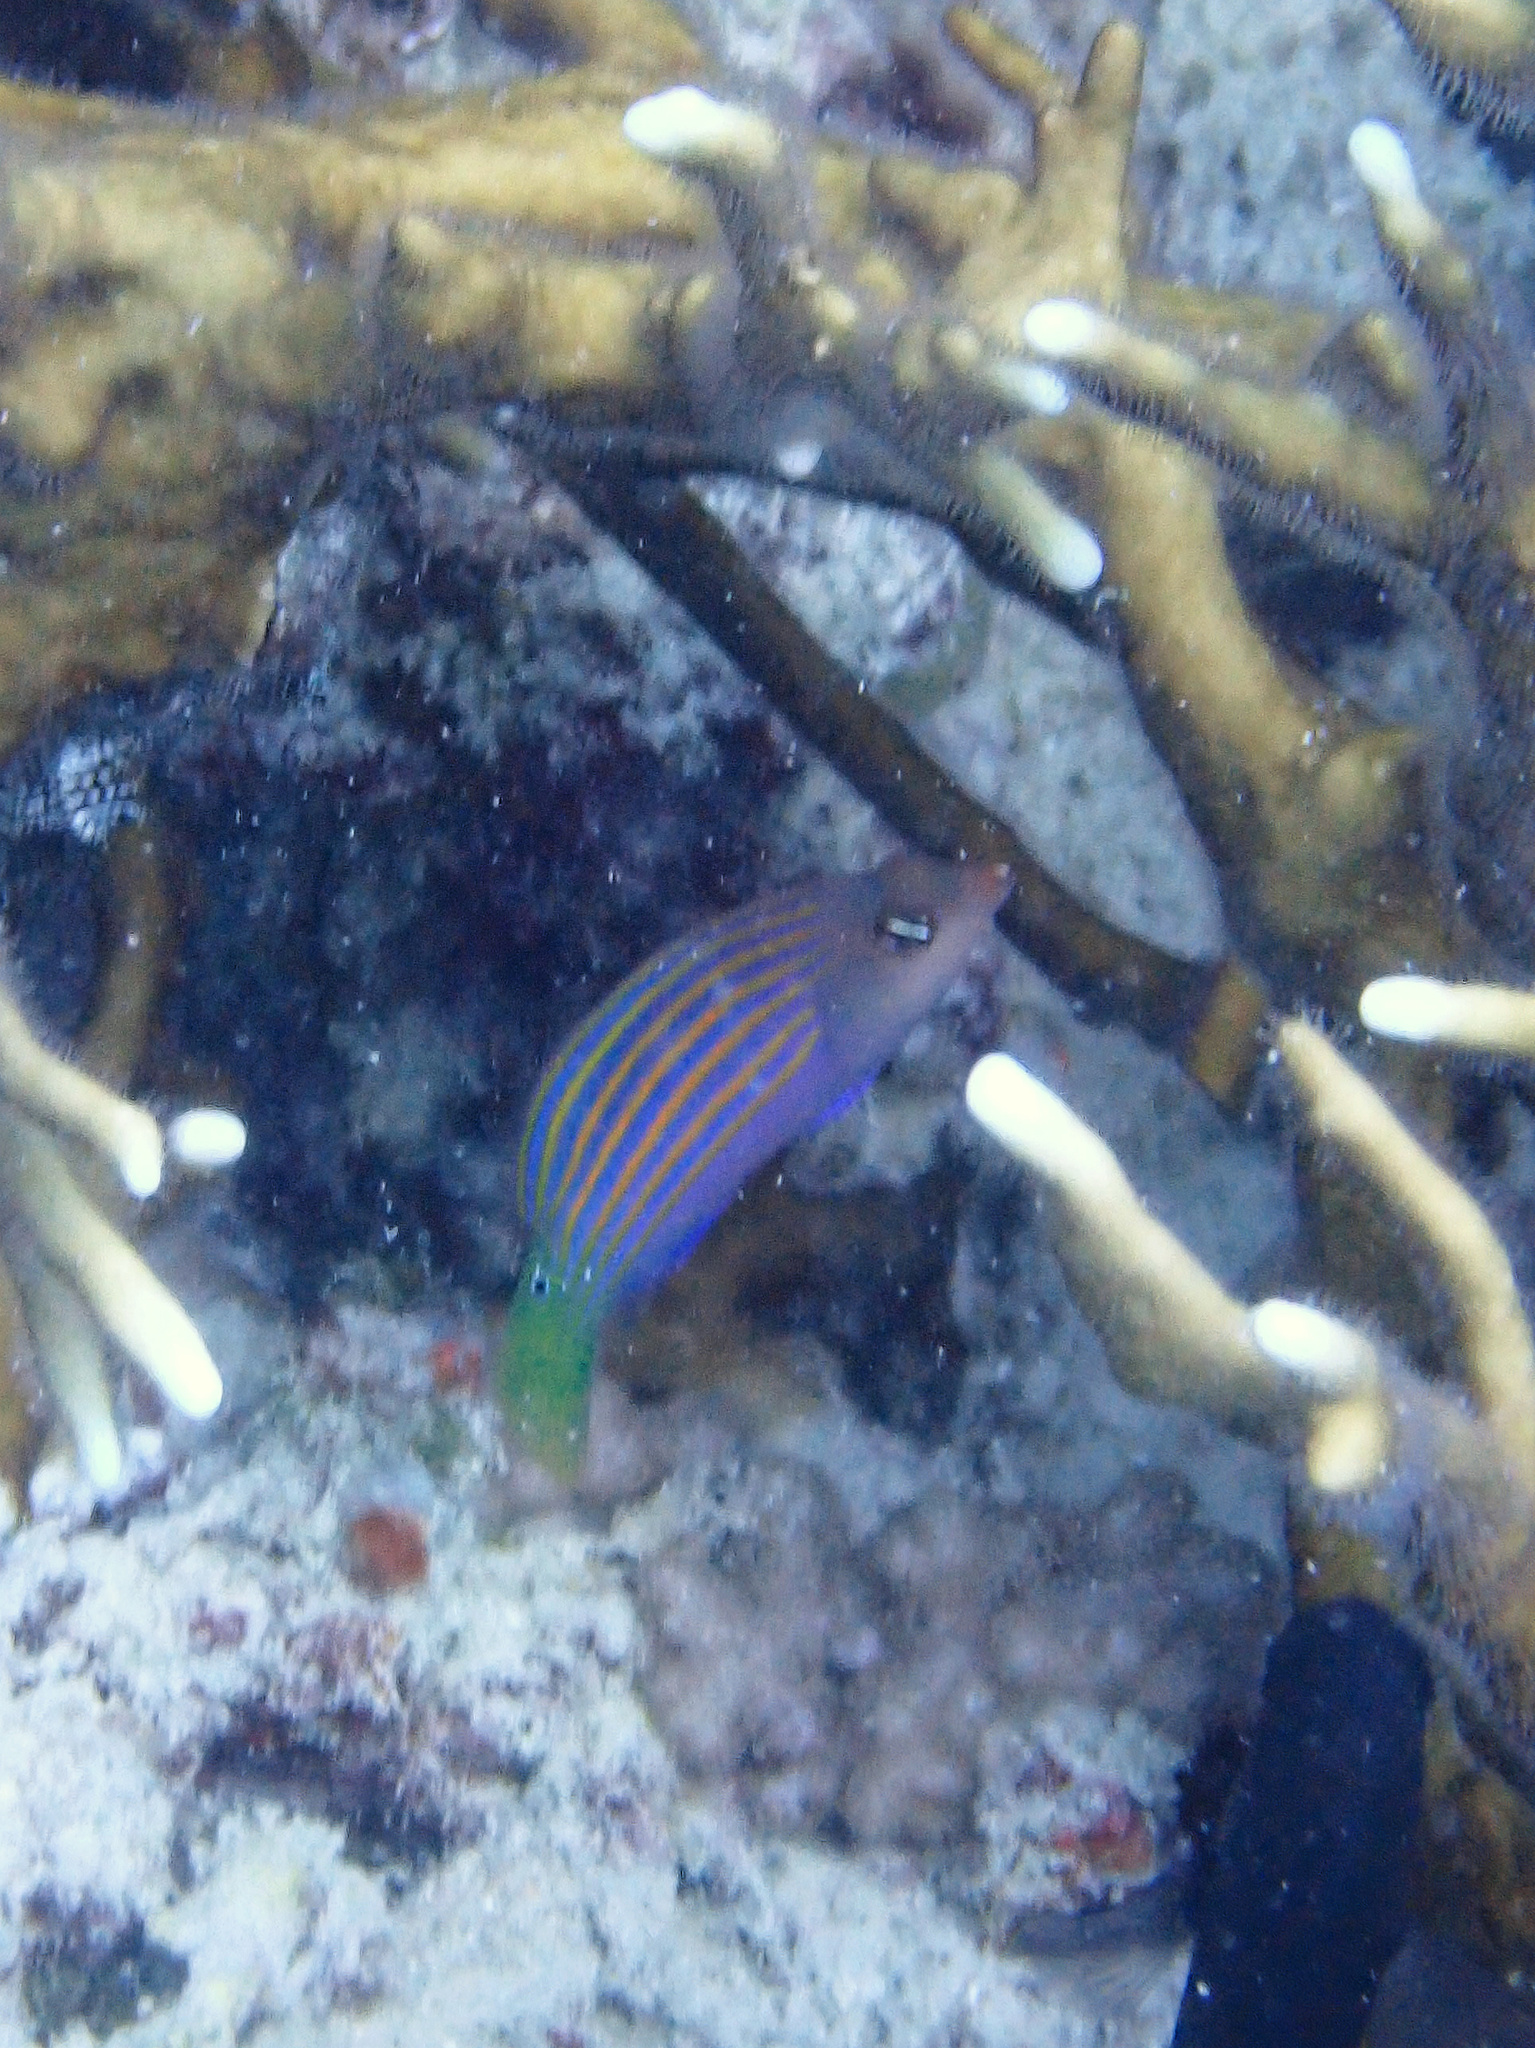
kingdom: Animalia
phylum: Chordata
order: Perciformes
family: Labridae
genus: Pseudocheilinus
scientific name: Pseudocheilinus hexataenia
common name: Sixline wrasse
